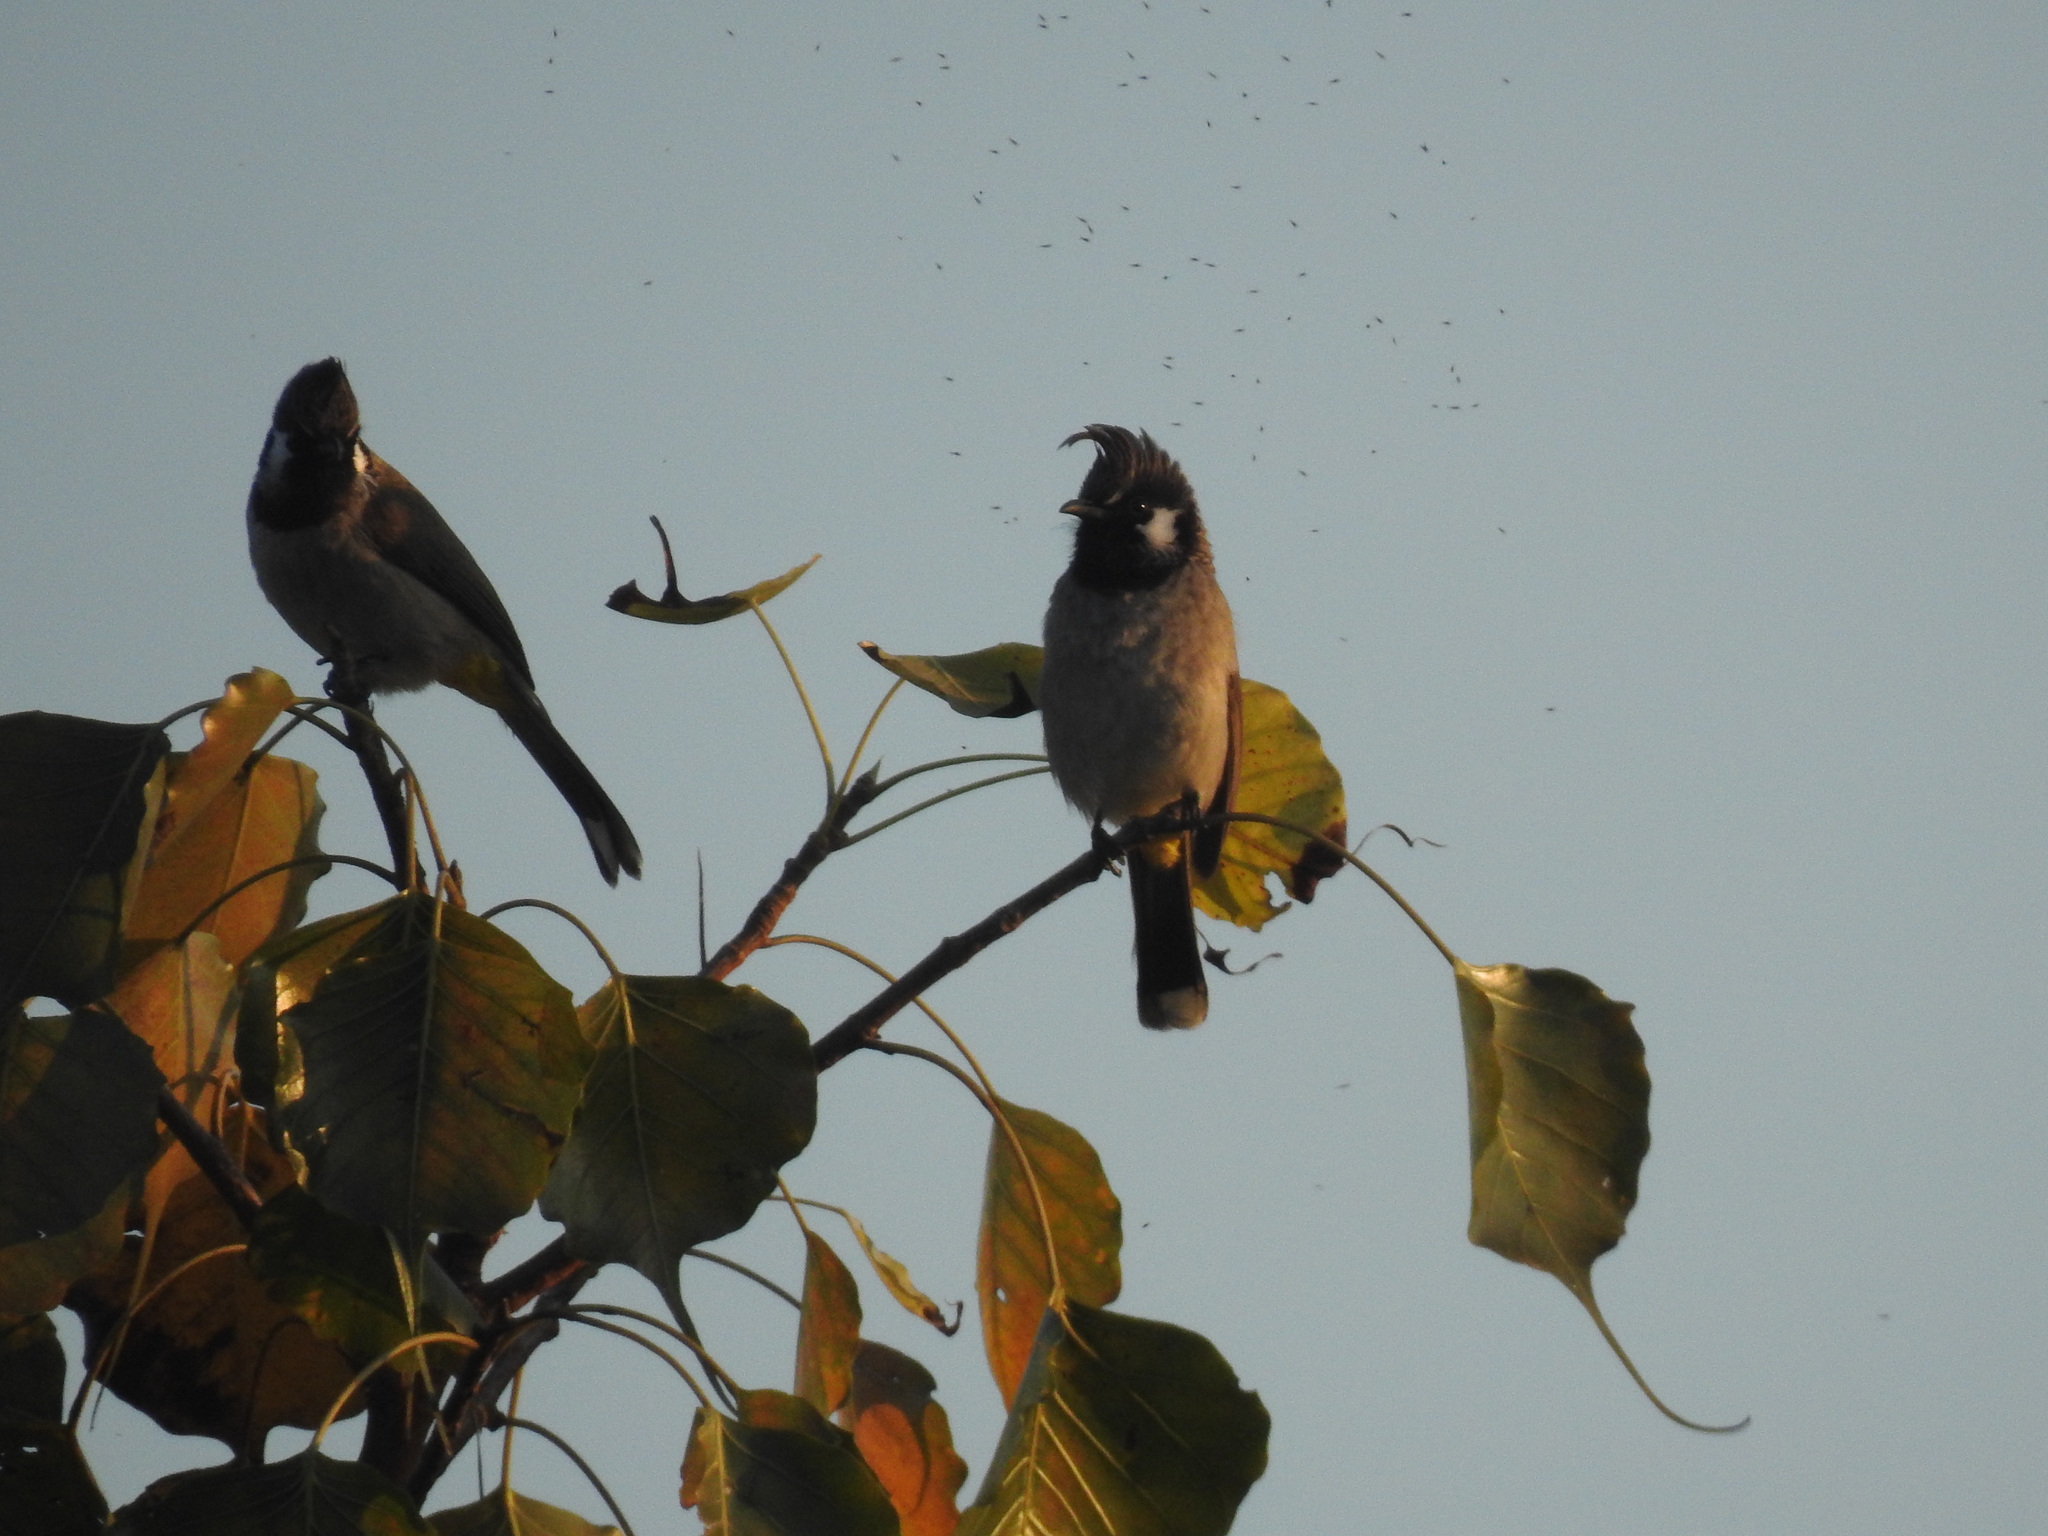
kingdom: Animalia
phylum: Chordata
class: Aves
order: Passeriformes
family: Pycnonotidae
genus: Pycnonotus
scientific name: Pycnonotus leucogenys
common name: Himalayan bulbul
